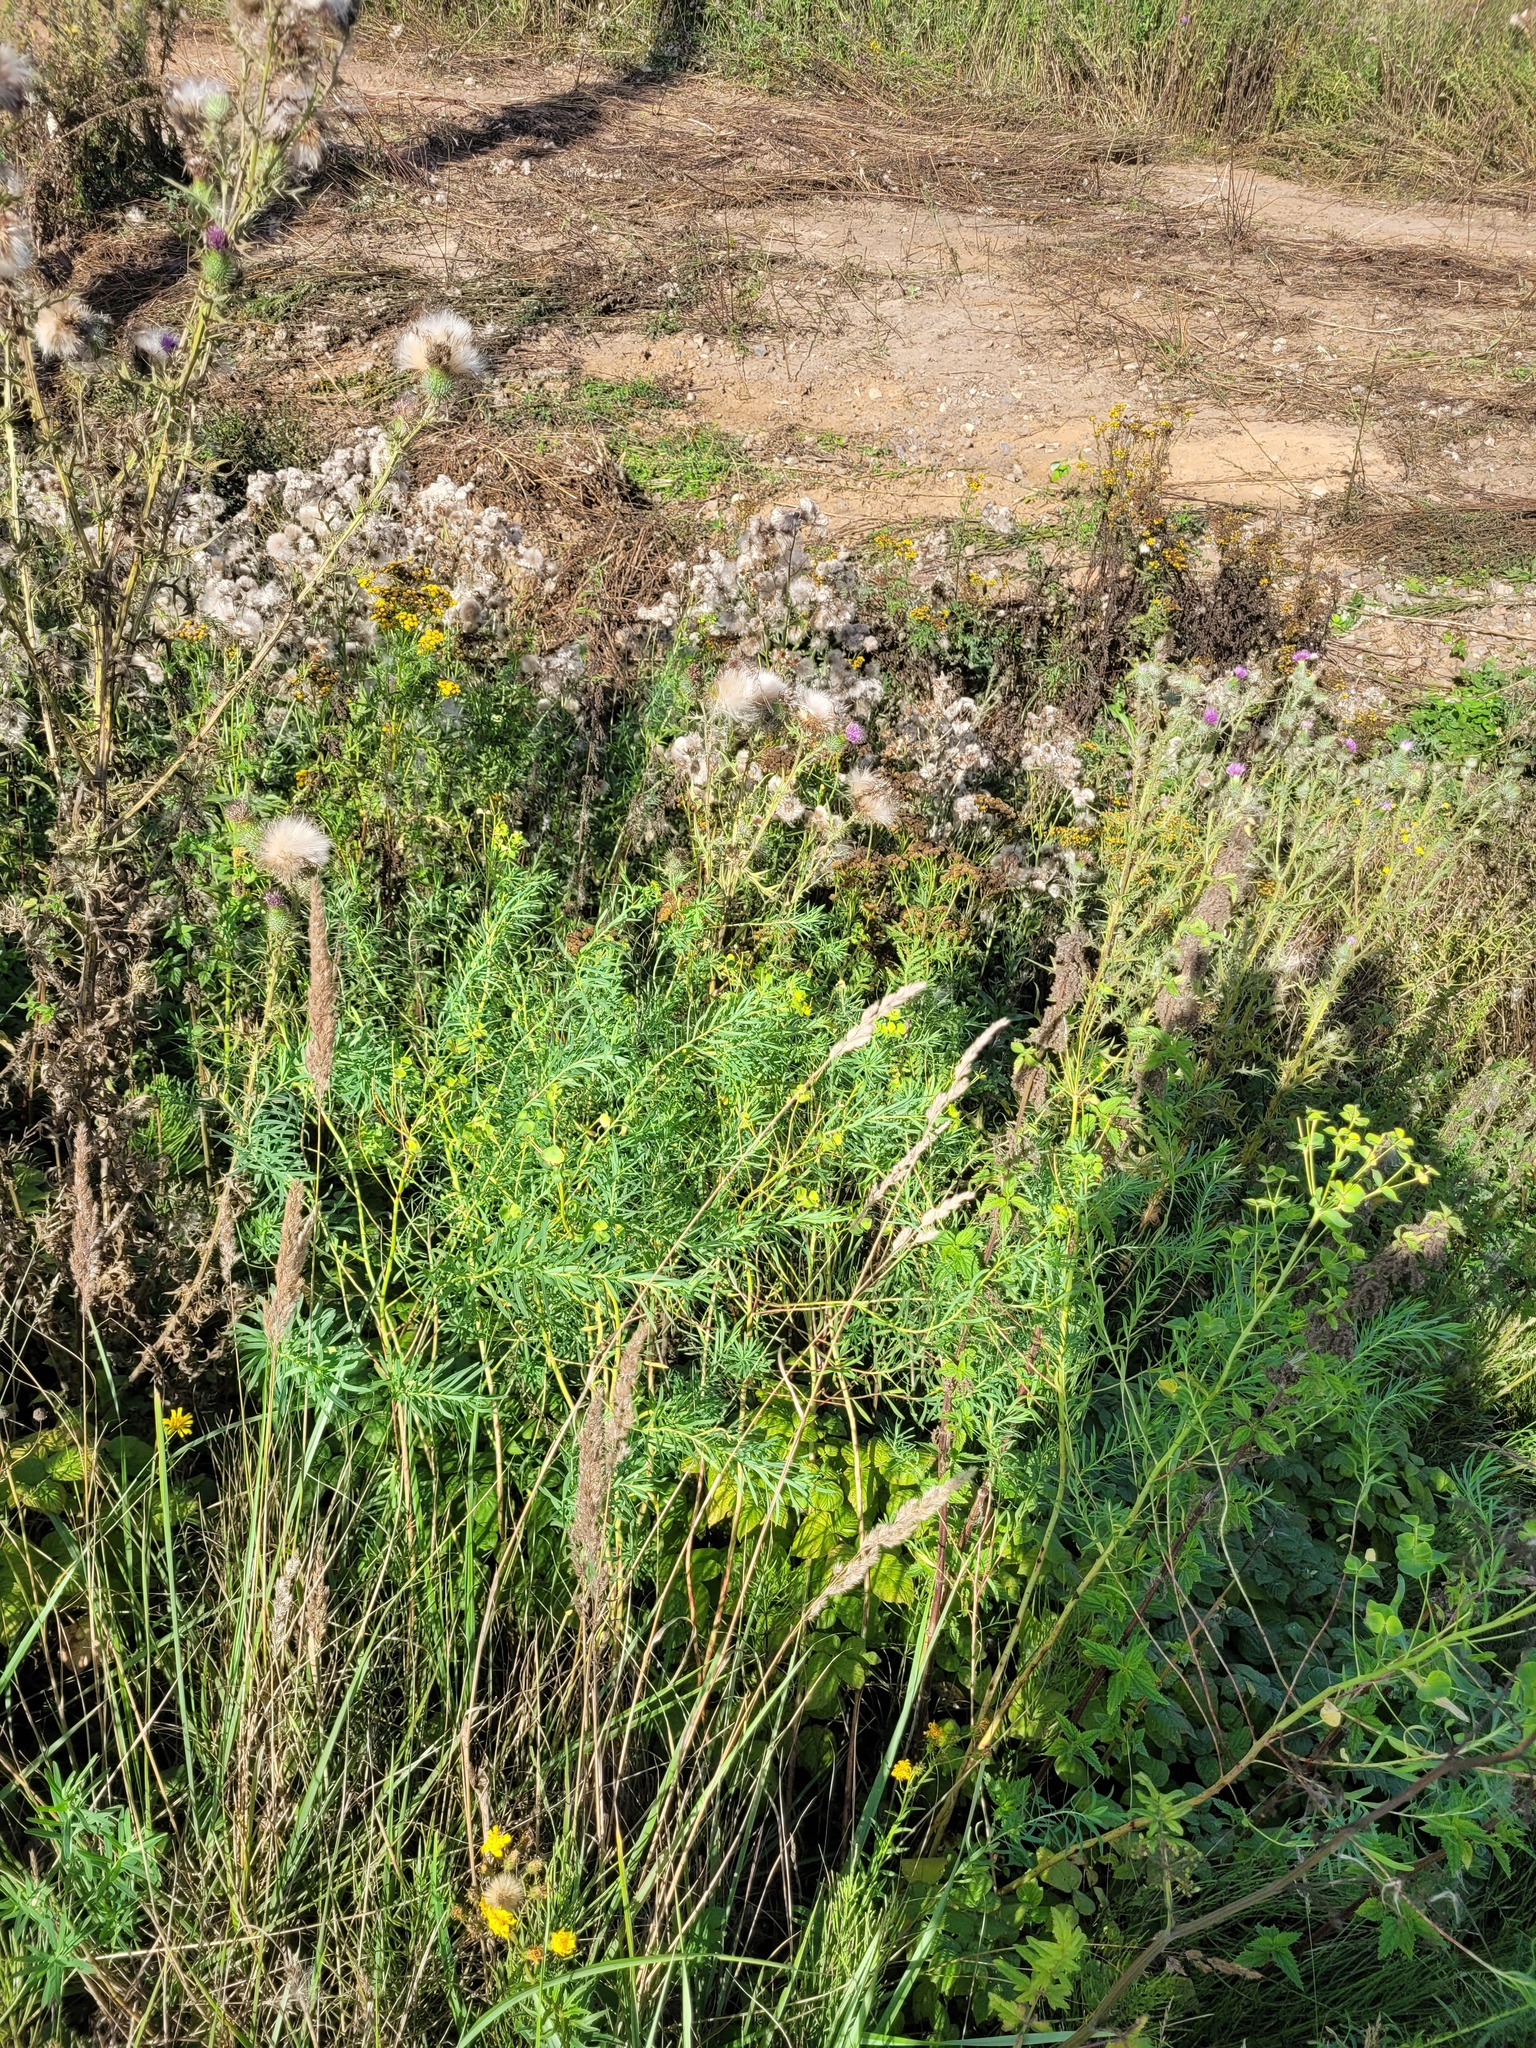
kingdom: Plantae
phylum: Tracheophyta
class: Magnoliopsida
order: Malpighiales
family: Euphorbiaceae
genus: Euphorbia
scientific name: Euphorbia virgata
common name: Leafy spurge
